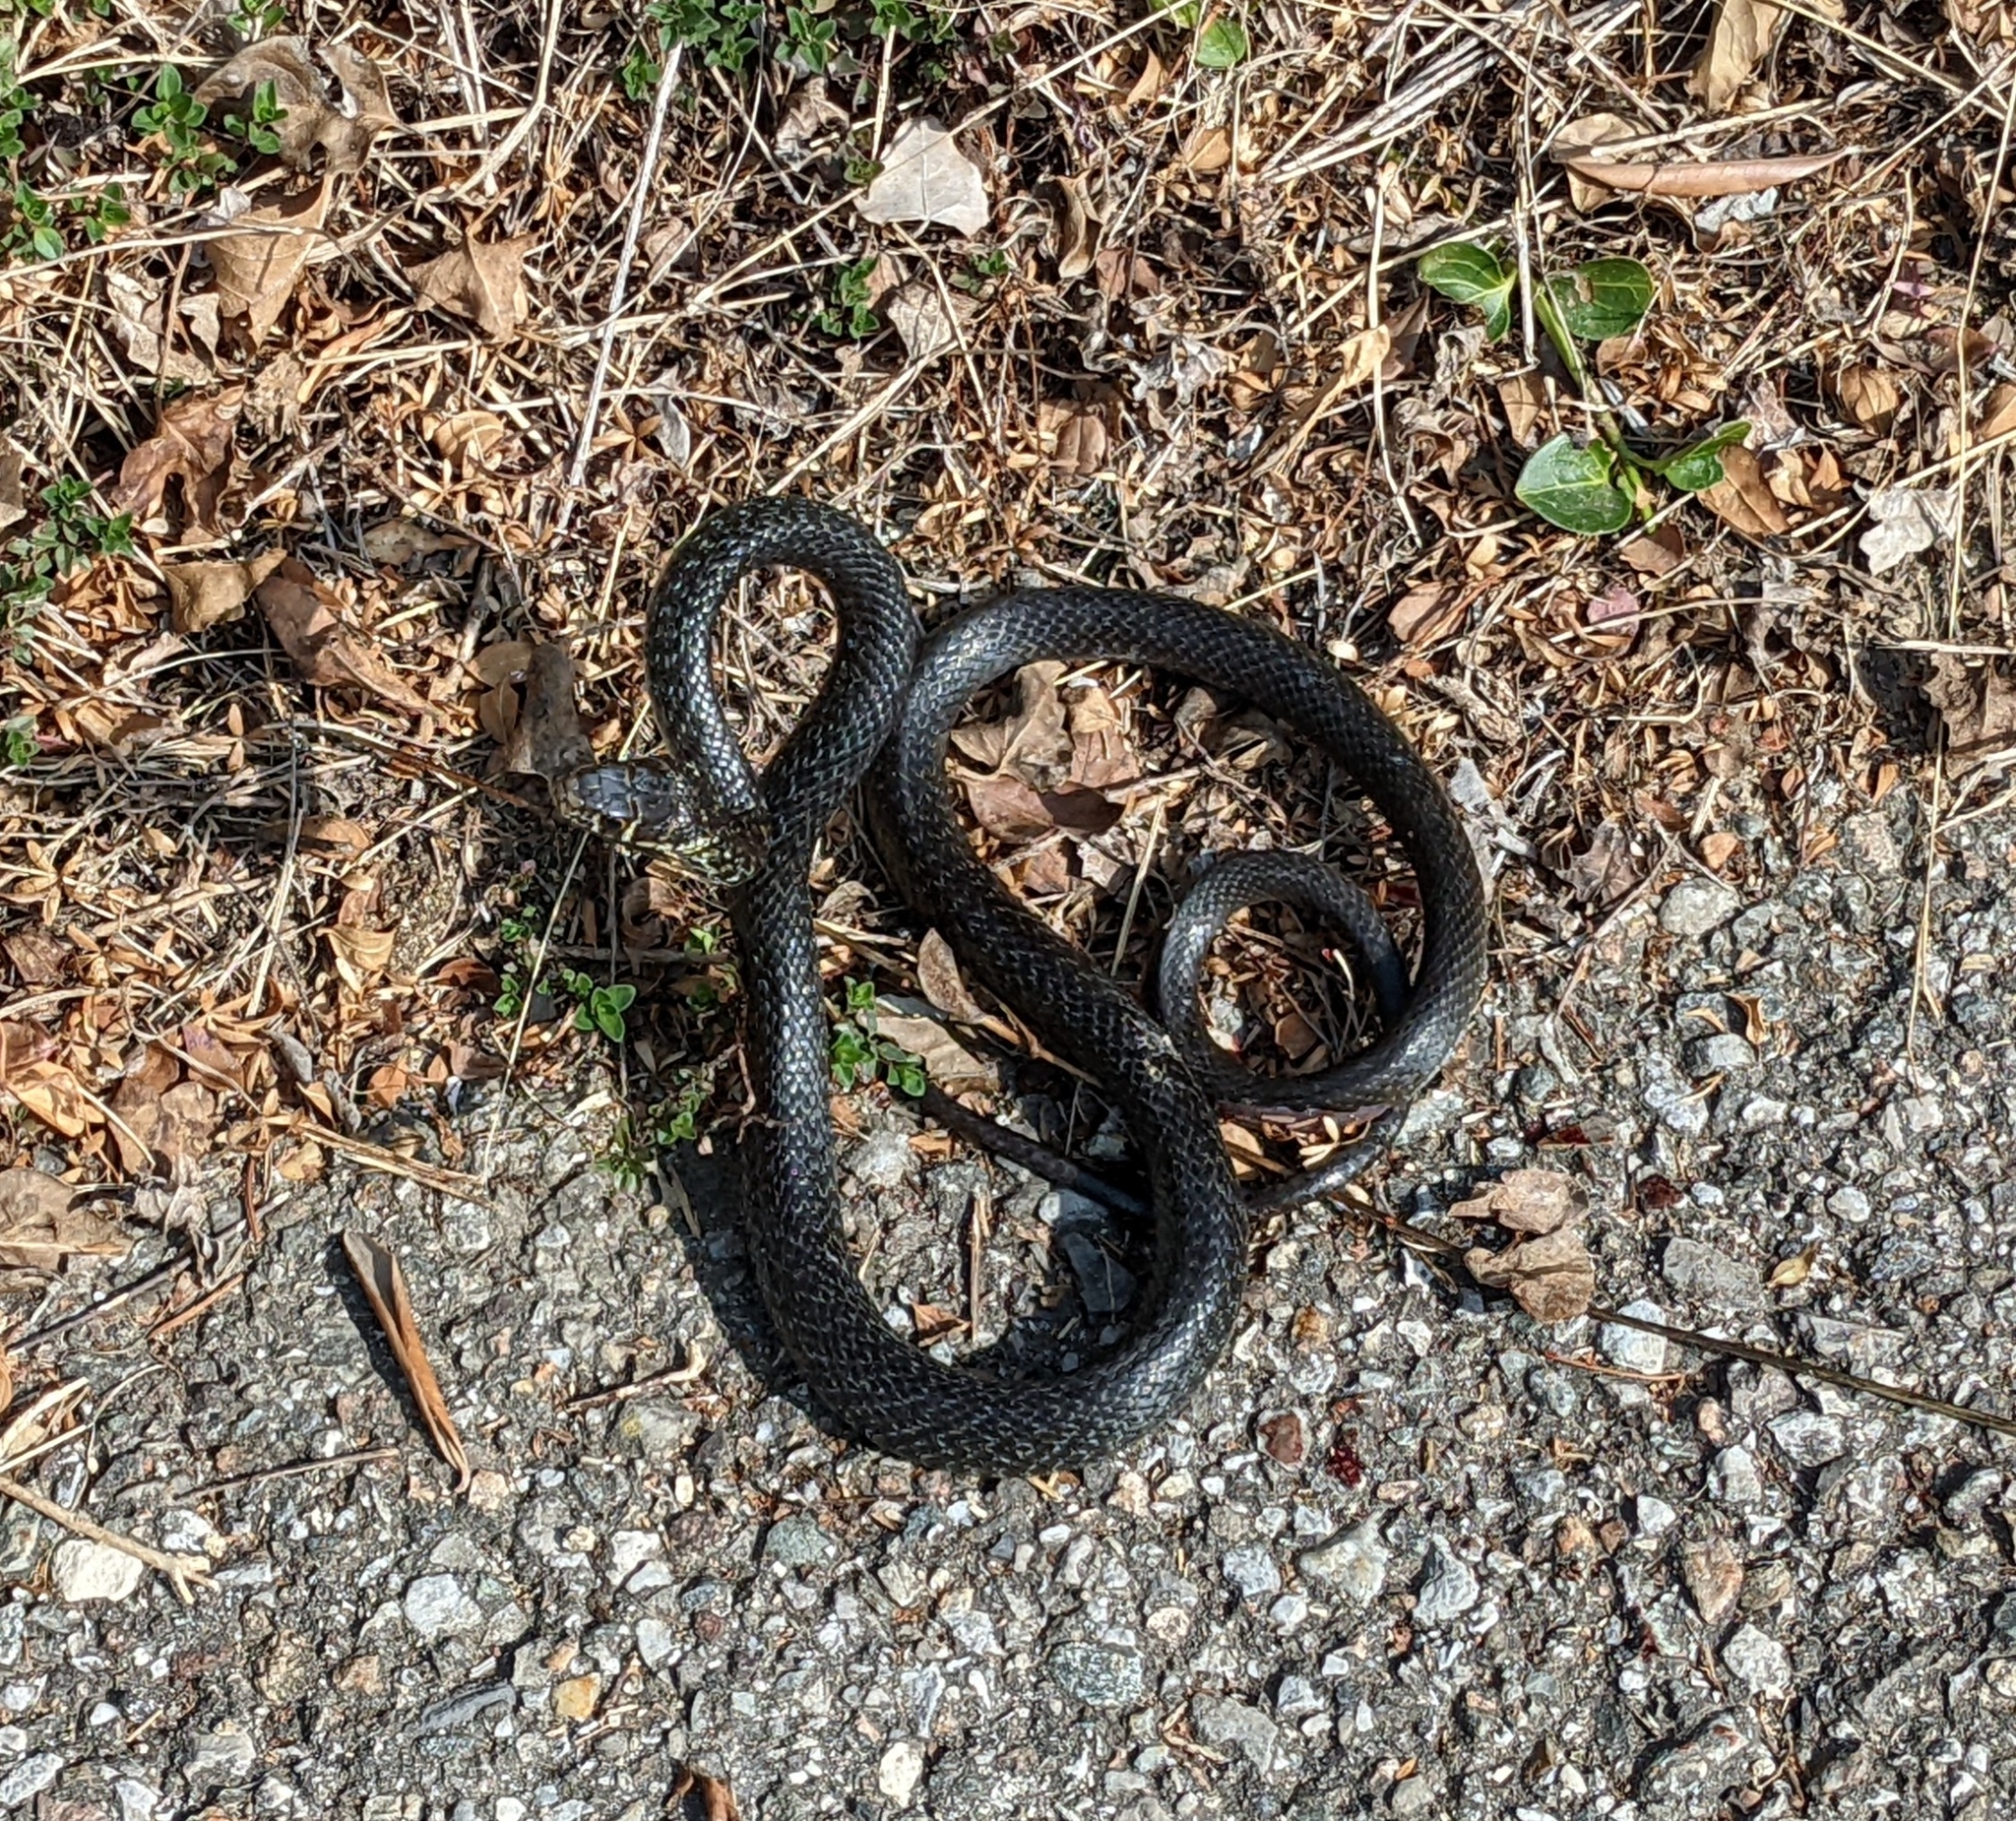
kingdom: Animalia
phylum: Chordata
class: Squamata
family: Colubridae
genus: Hierophis
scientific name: Hierophis viridiflavus
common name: Green whip snake
